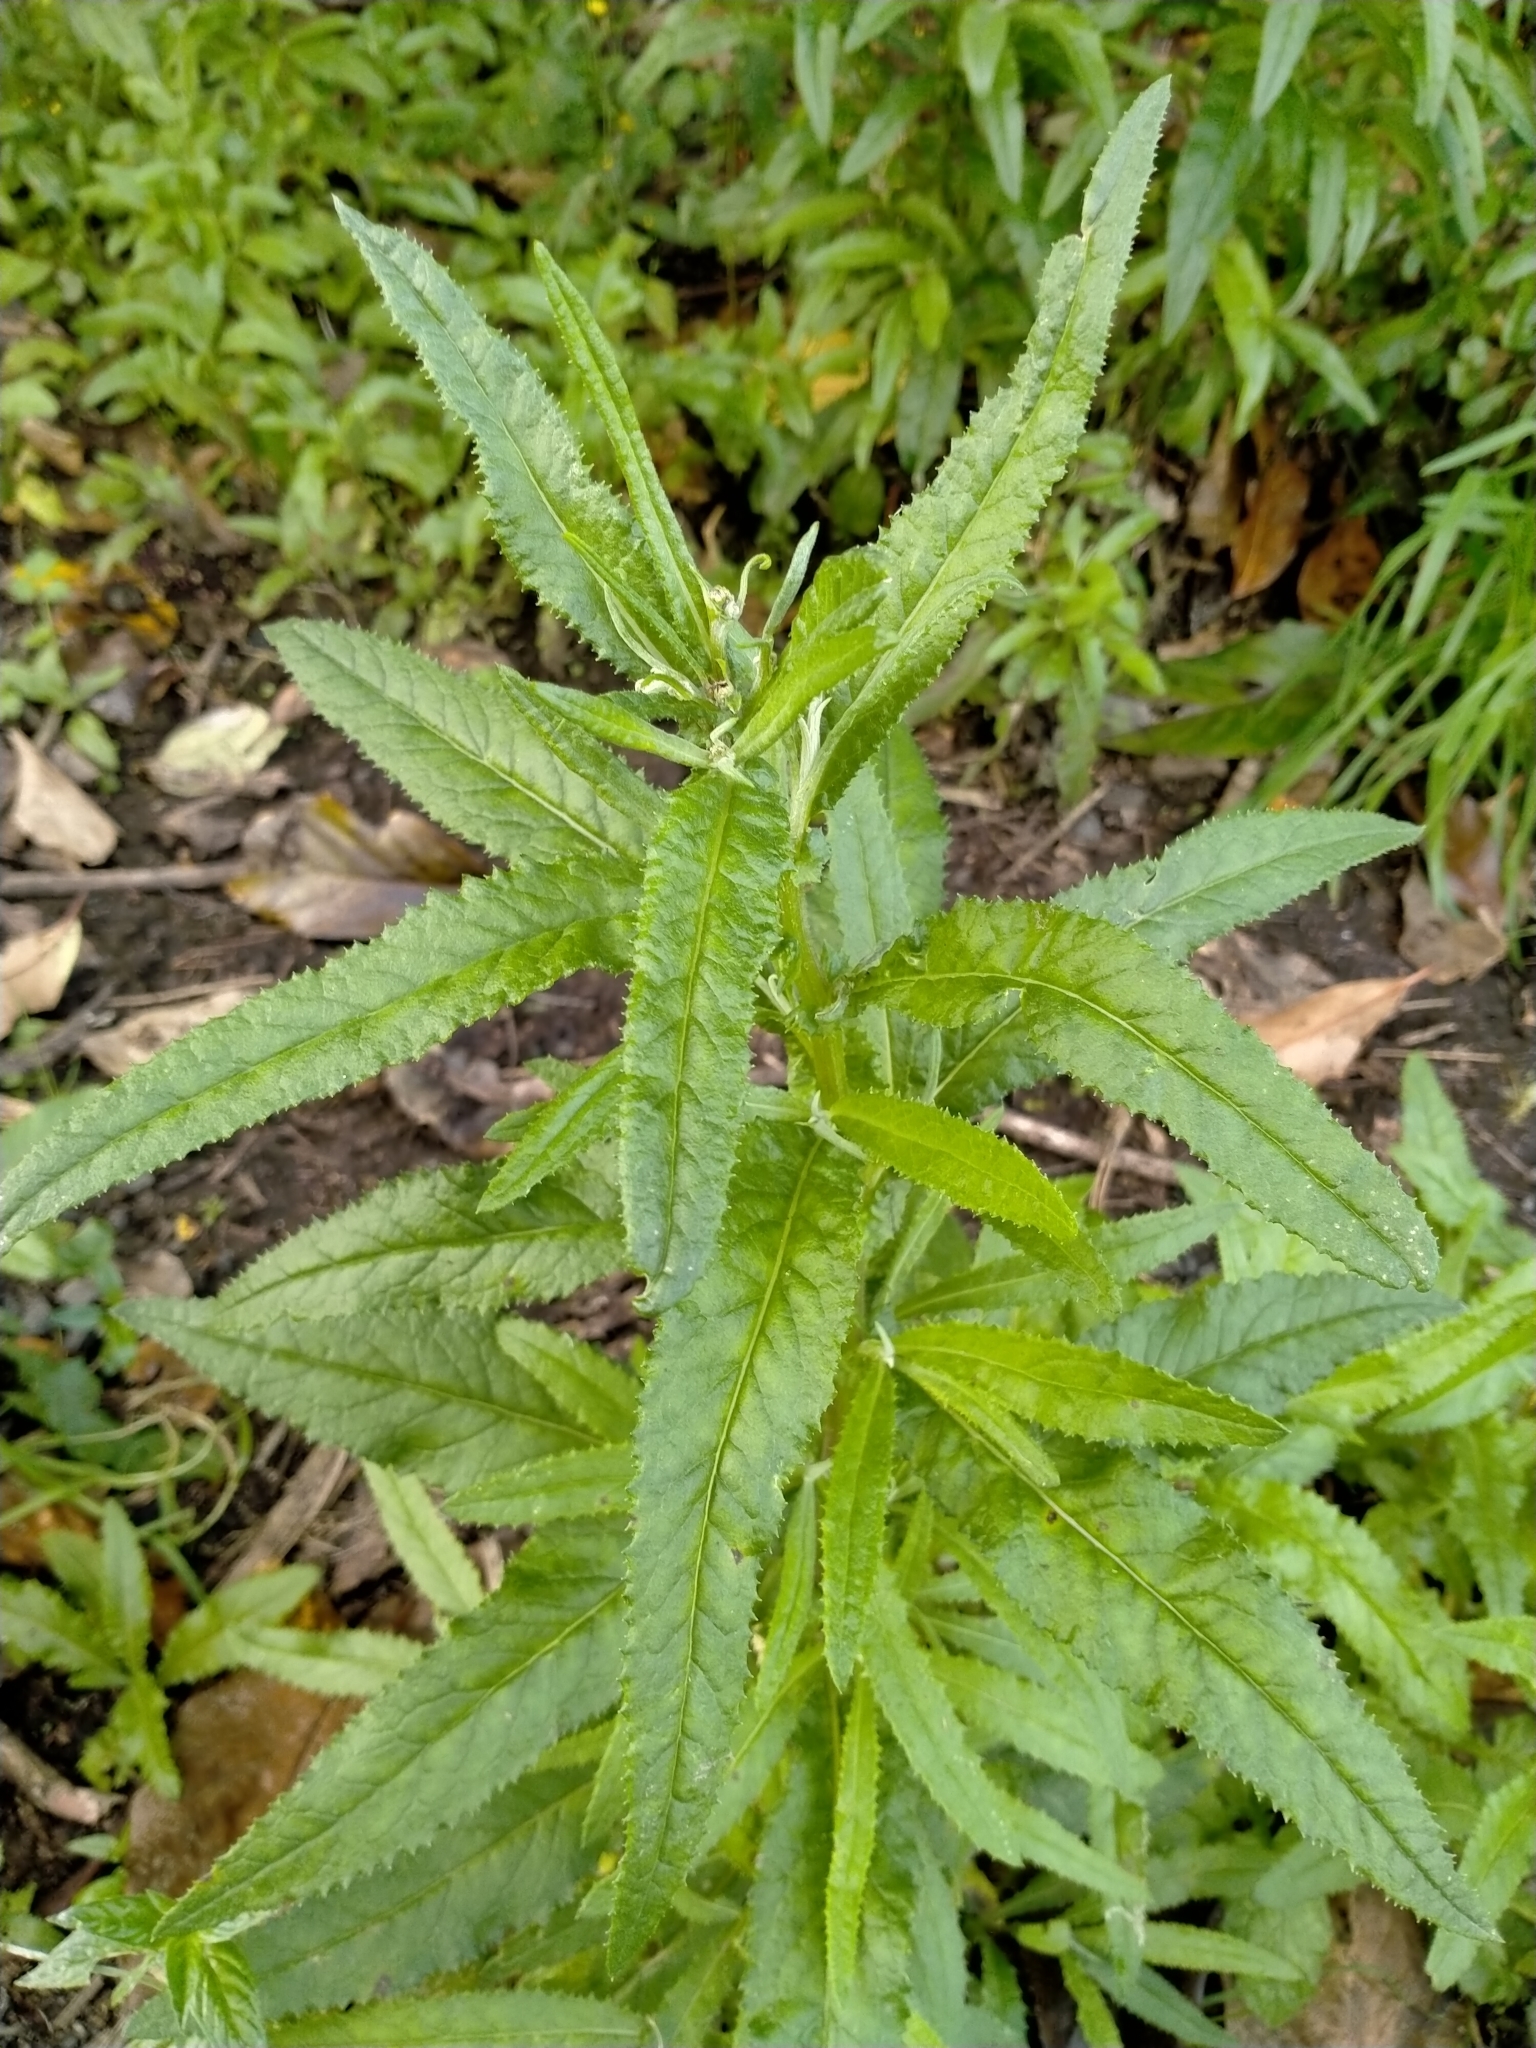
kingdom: Plantae
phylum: Tracheophyta
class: Magnoliopsida
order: Asterales
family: Asteraceae
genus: Senecio
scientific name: Senecio minimus
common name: Toothed fireweed
